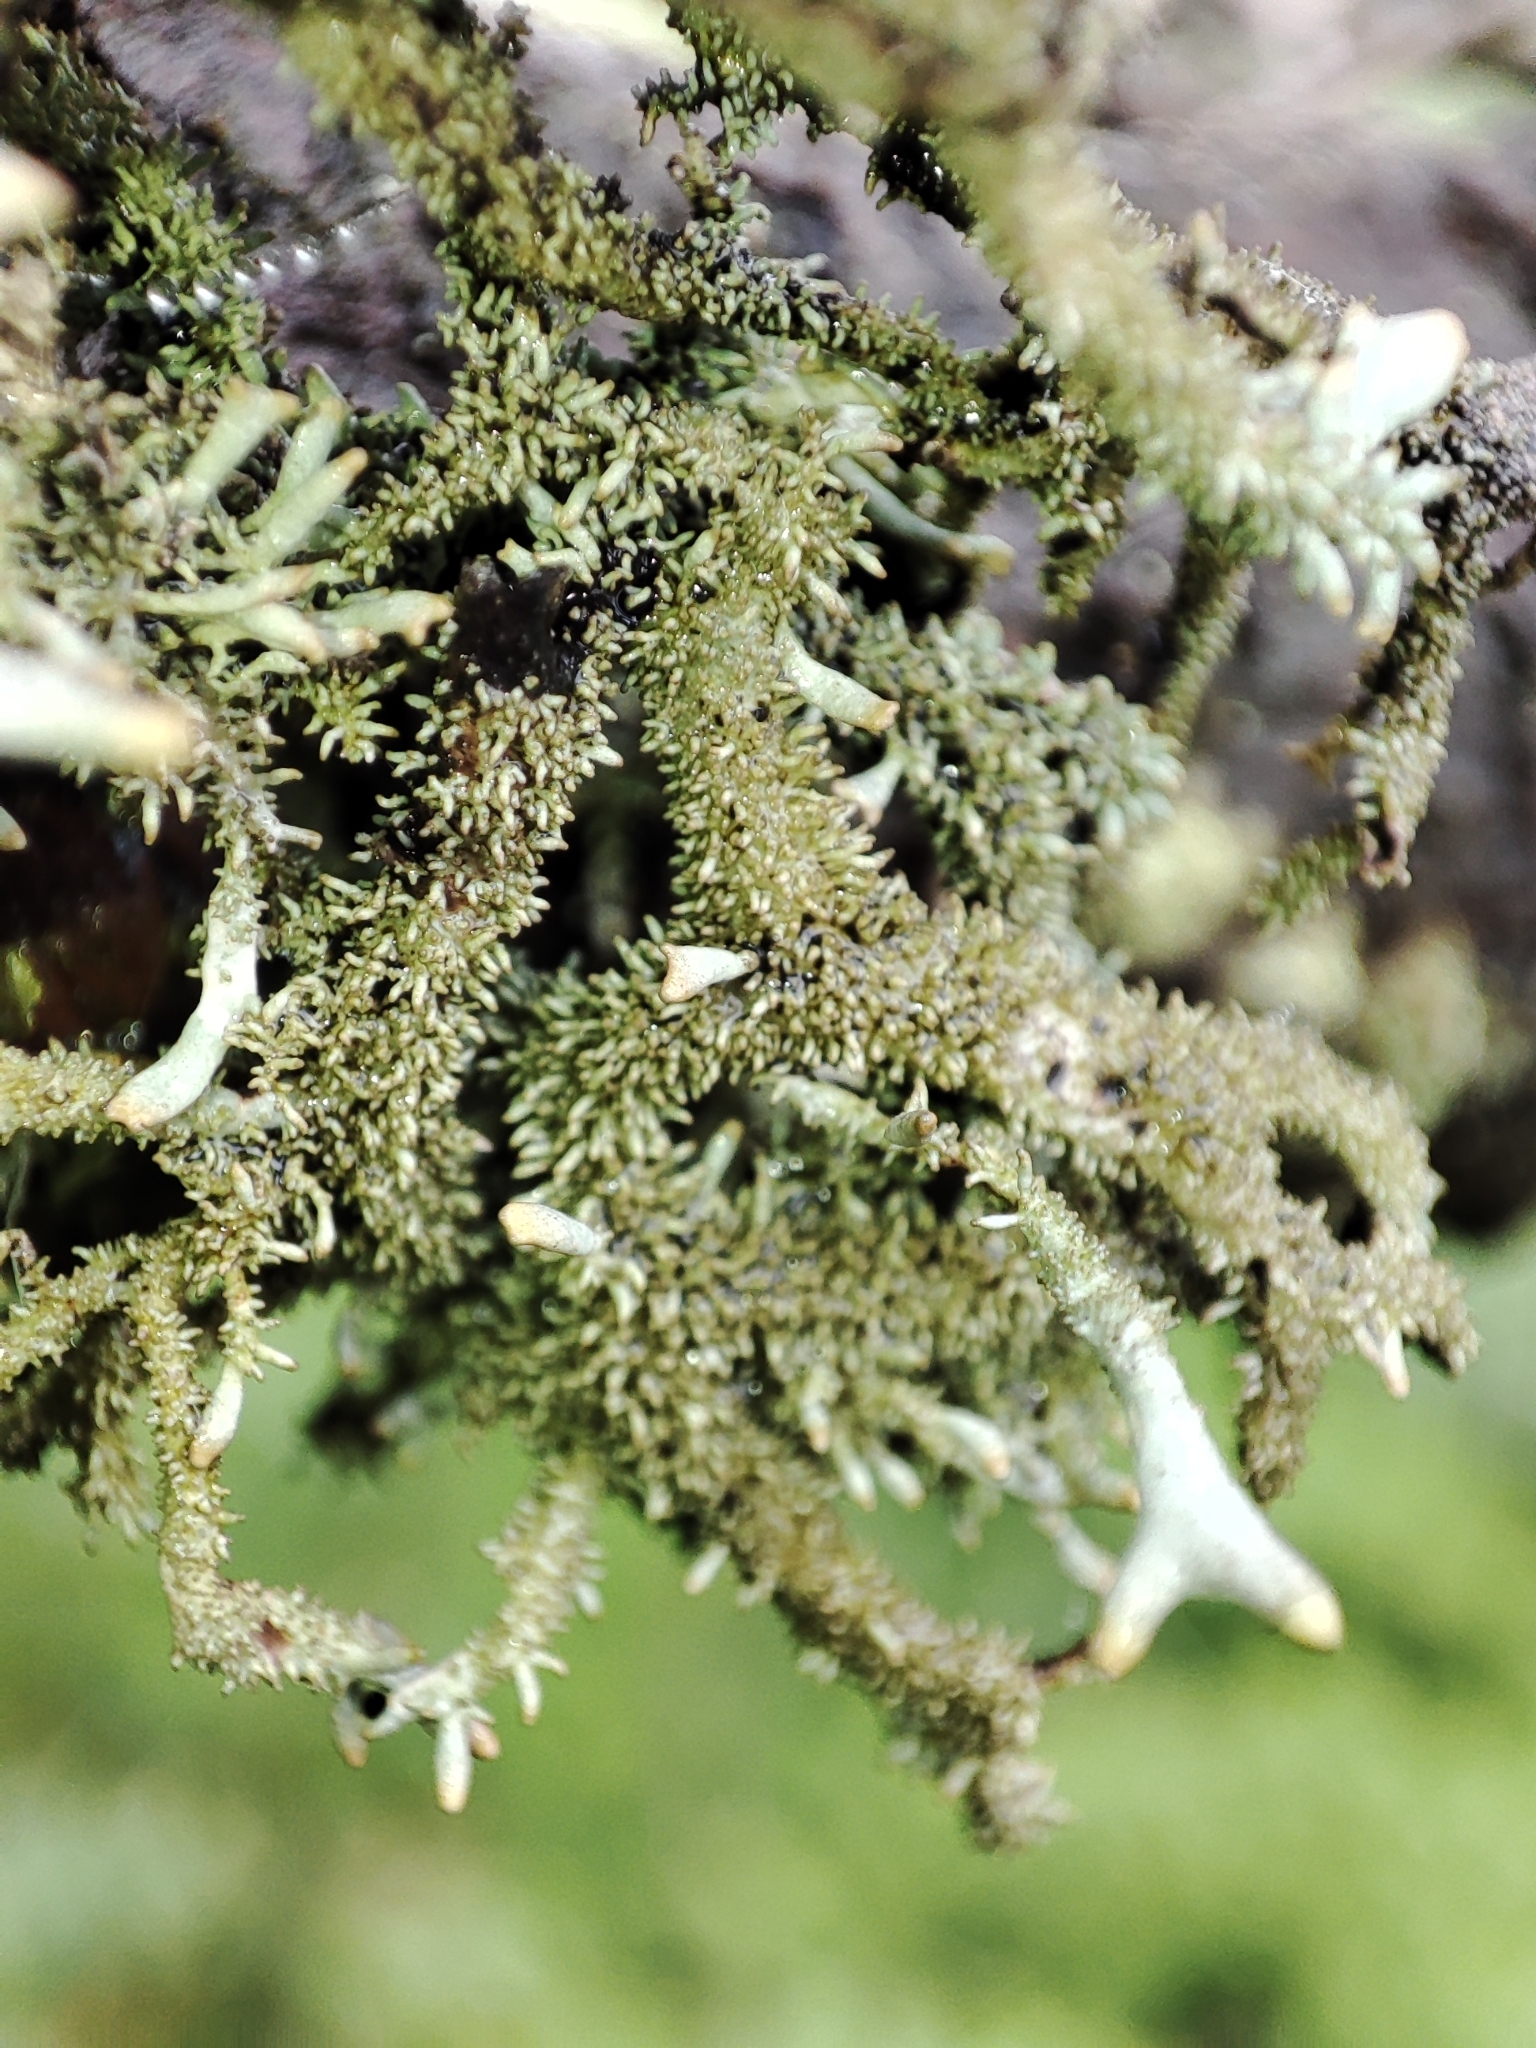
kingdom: Fungi
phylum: Ascomycota
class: Lecanoromycetes
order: Lecanorales
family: Parmeliaceae
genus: Pseudevernia
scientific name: Pseudevernia furfuracea
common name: Tree moss
